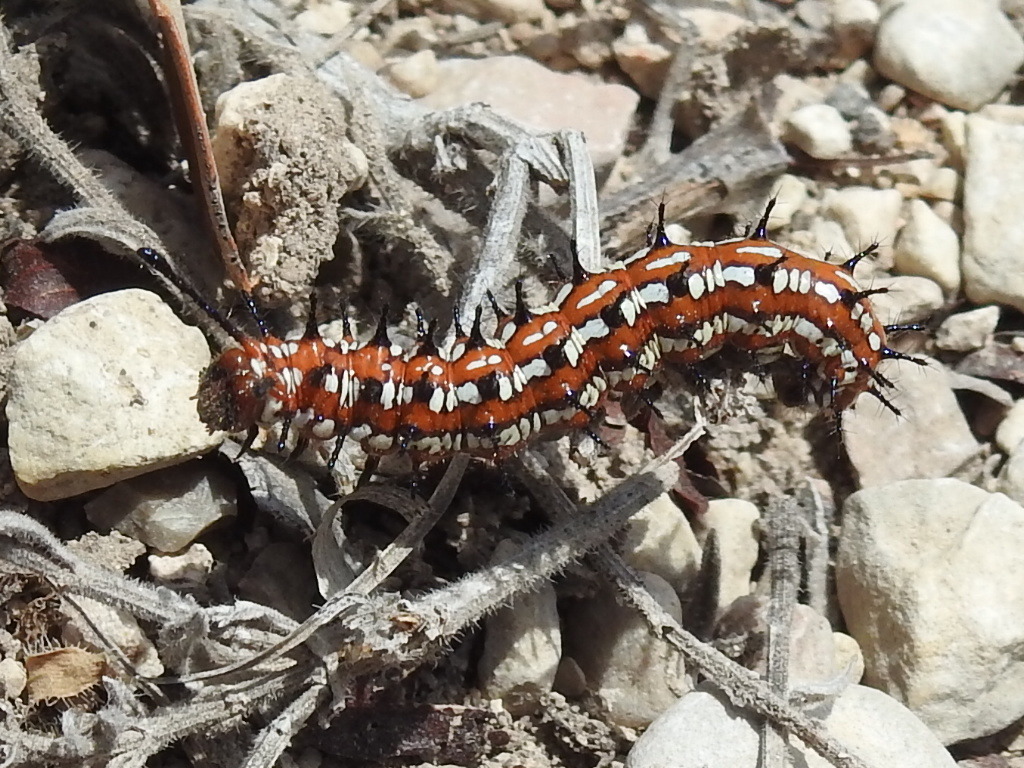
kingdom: Animalia
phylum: Arthropoda
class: Insecta
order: Lepidoptera
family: Nymphalidae
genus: Euptoieta
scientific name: Euptoieta claudia
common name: Variegated fritillary
